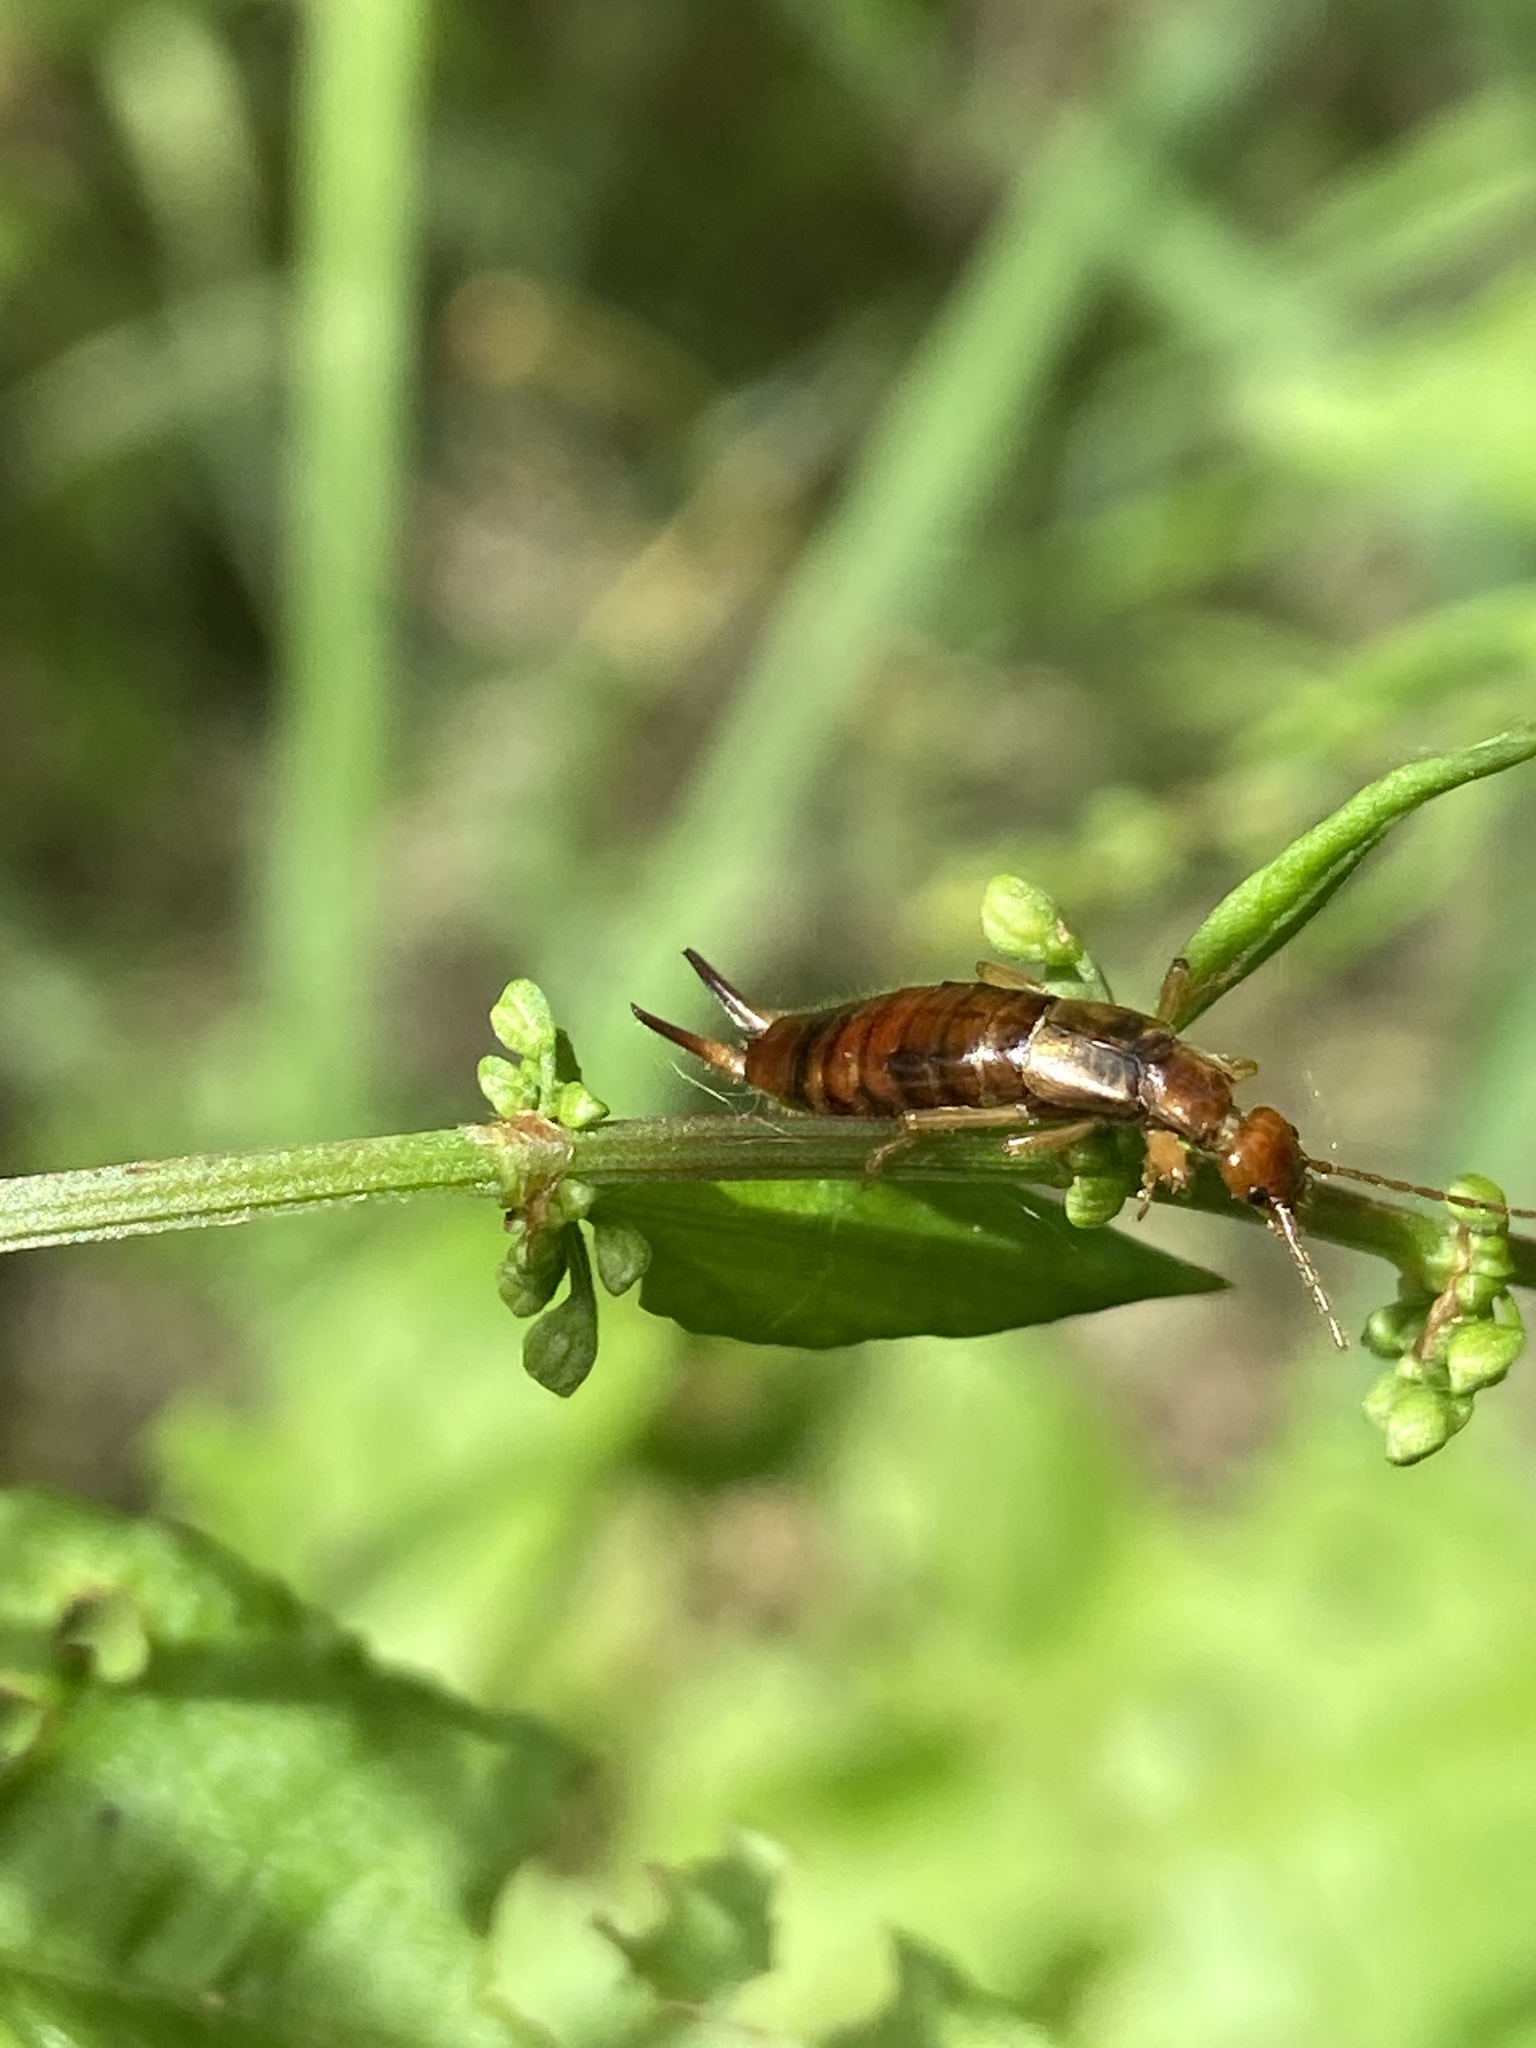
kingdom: Animalia
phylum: Arthropoda
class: Insecta
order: Dermaptera
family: Forficulidae
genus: Apterygida
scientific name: Apterygida albipennis
